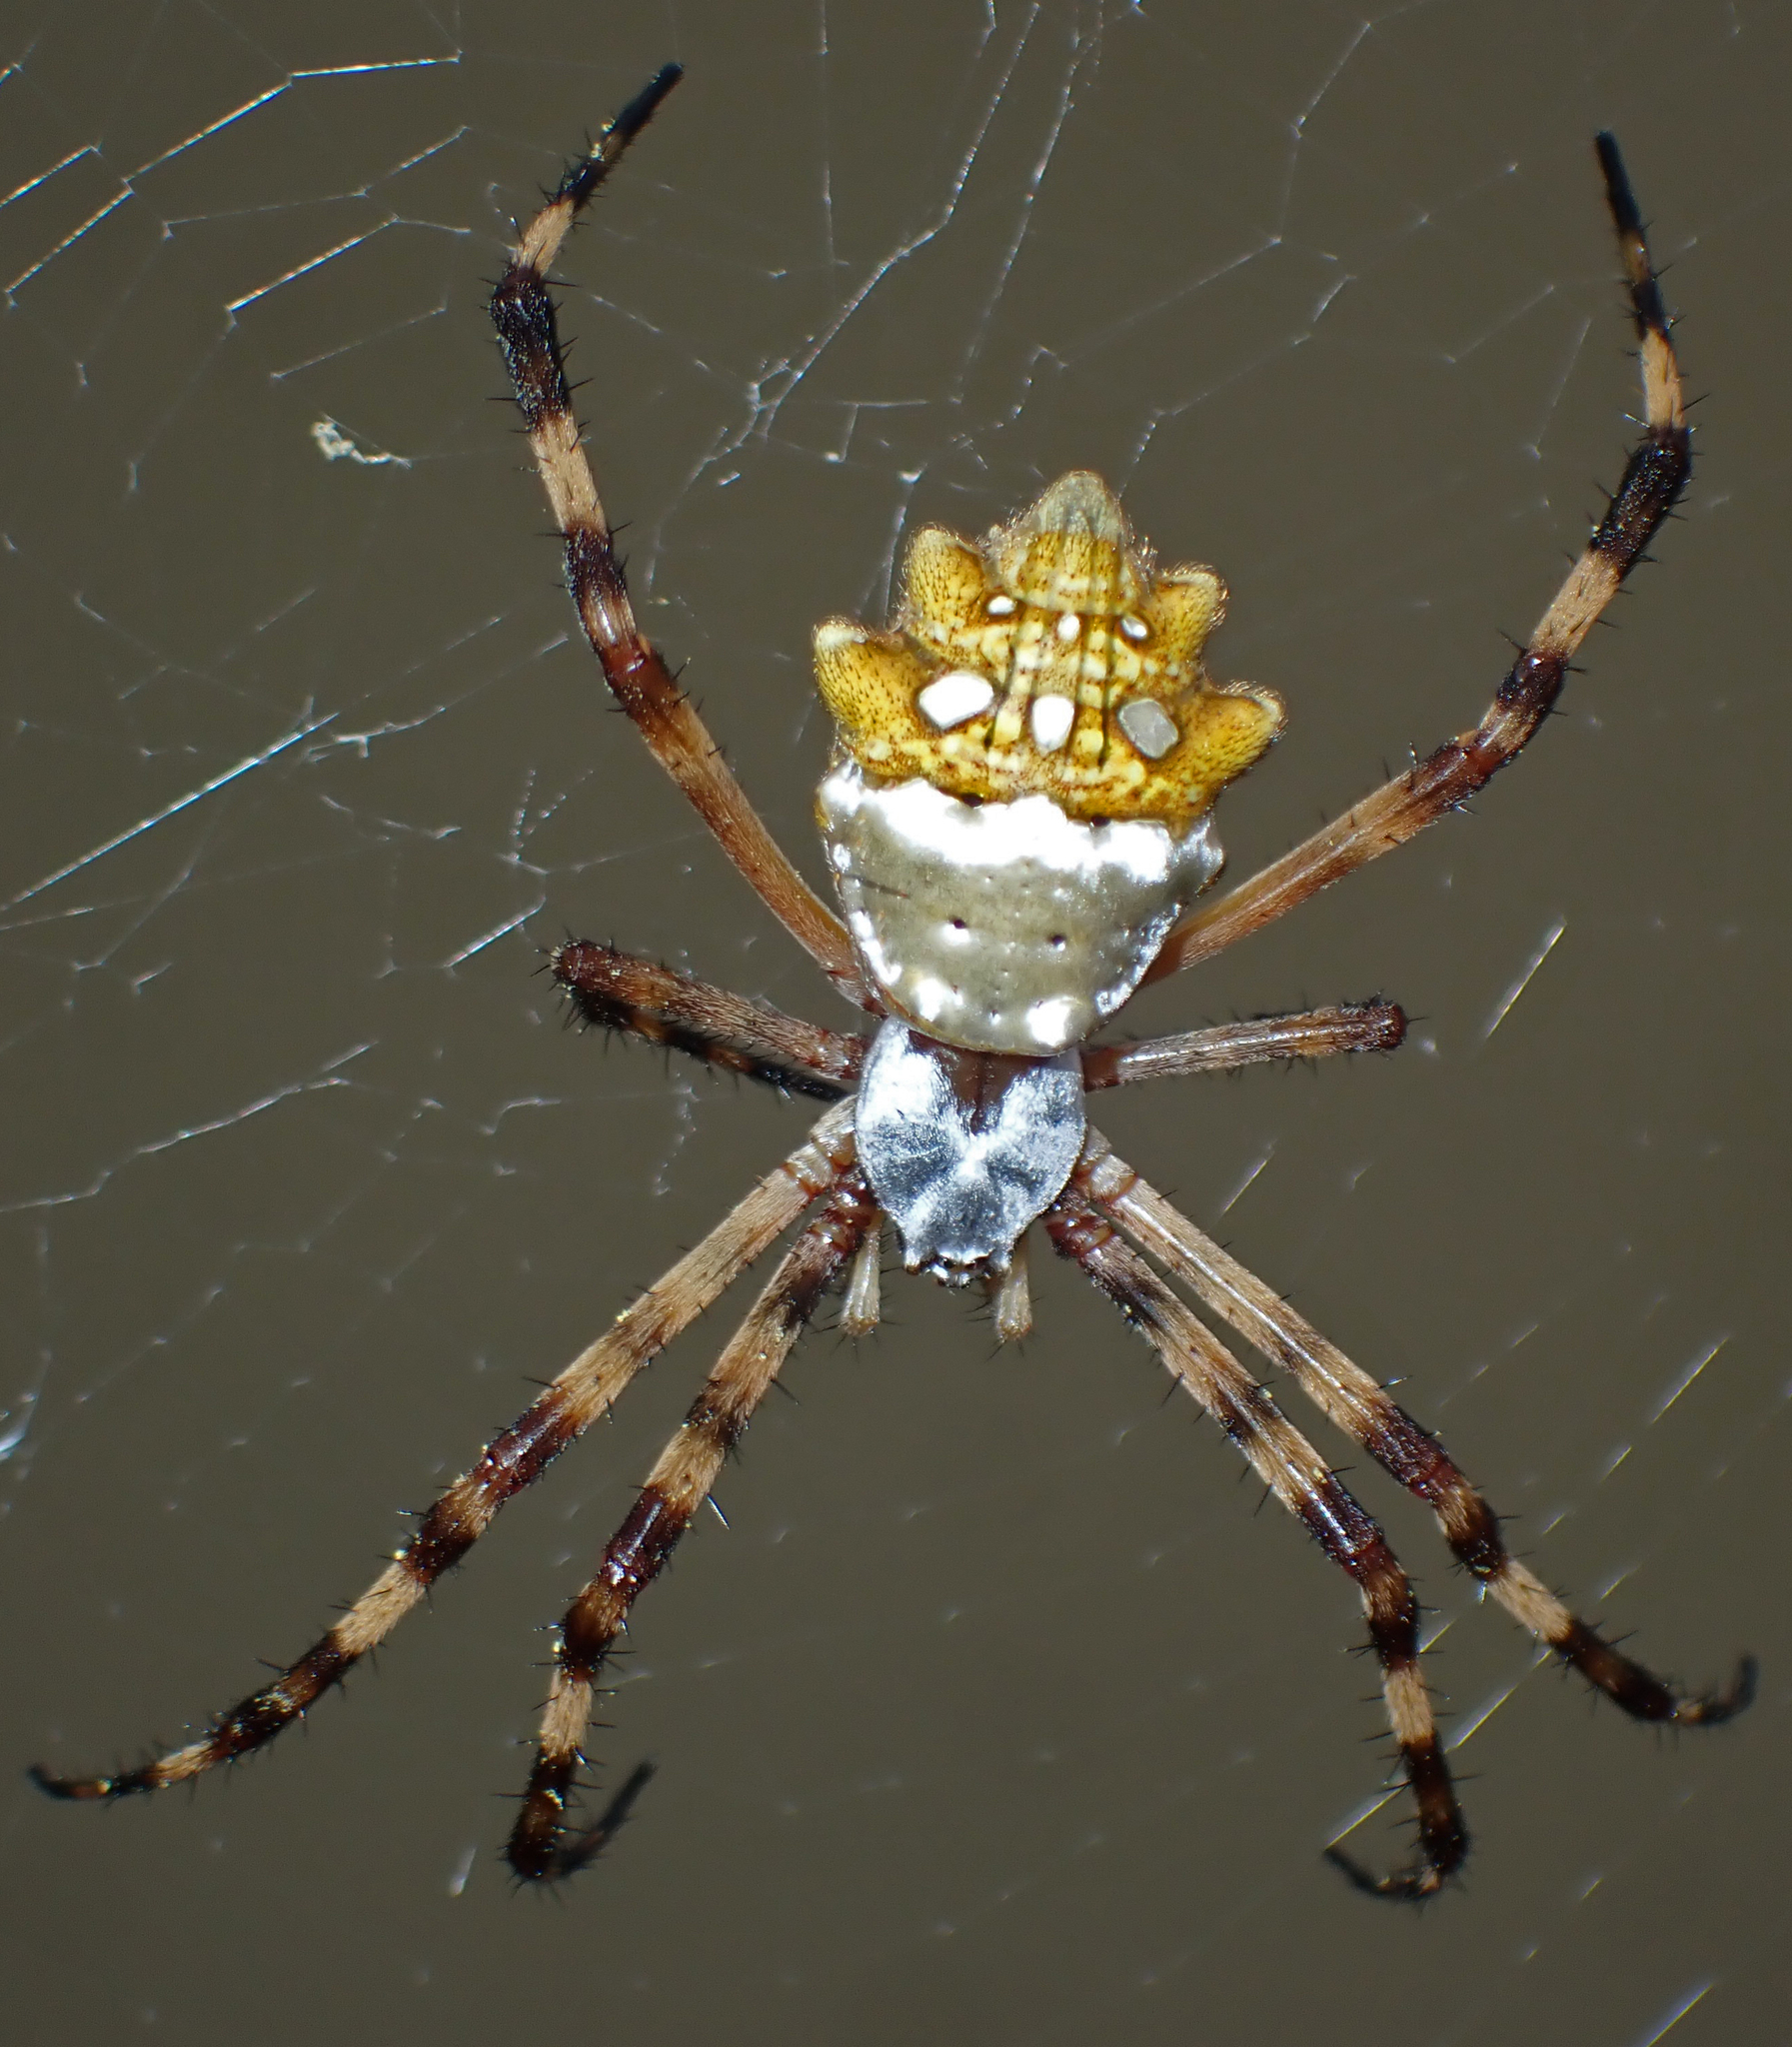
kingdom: Animalia
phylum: Arthropoda
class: Arachnida
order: Araneae
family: Araneidae
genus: Argiope
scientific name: Argiope argentata
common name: Orb weavers
